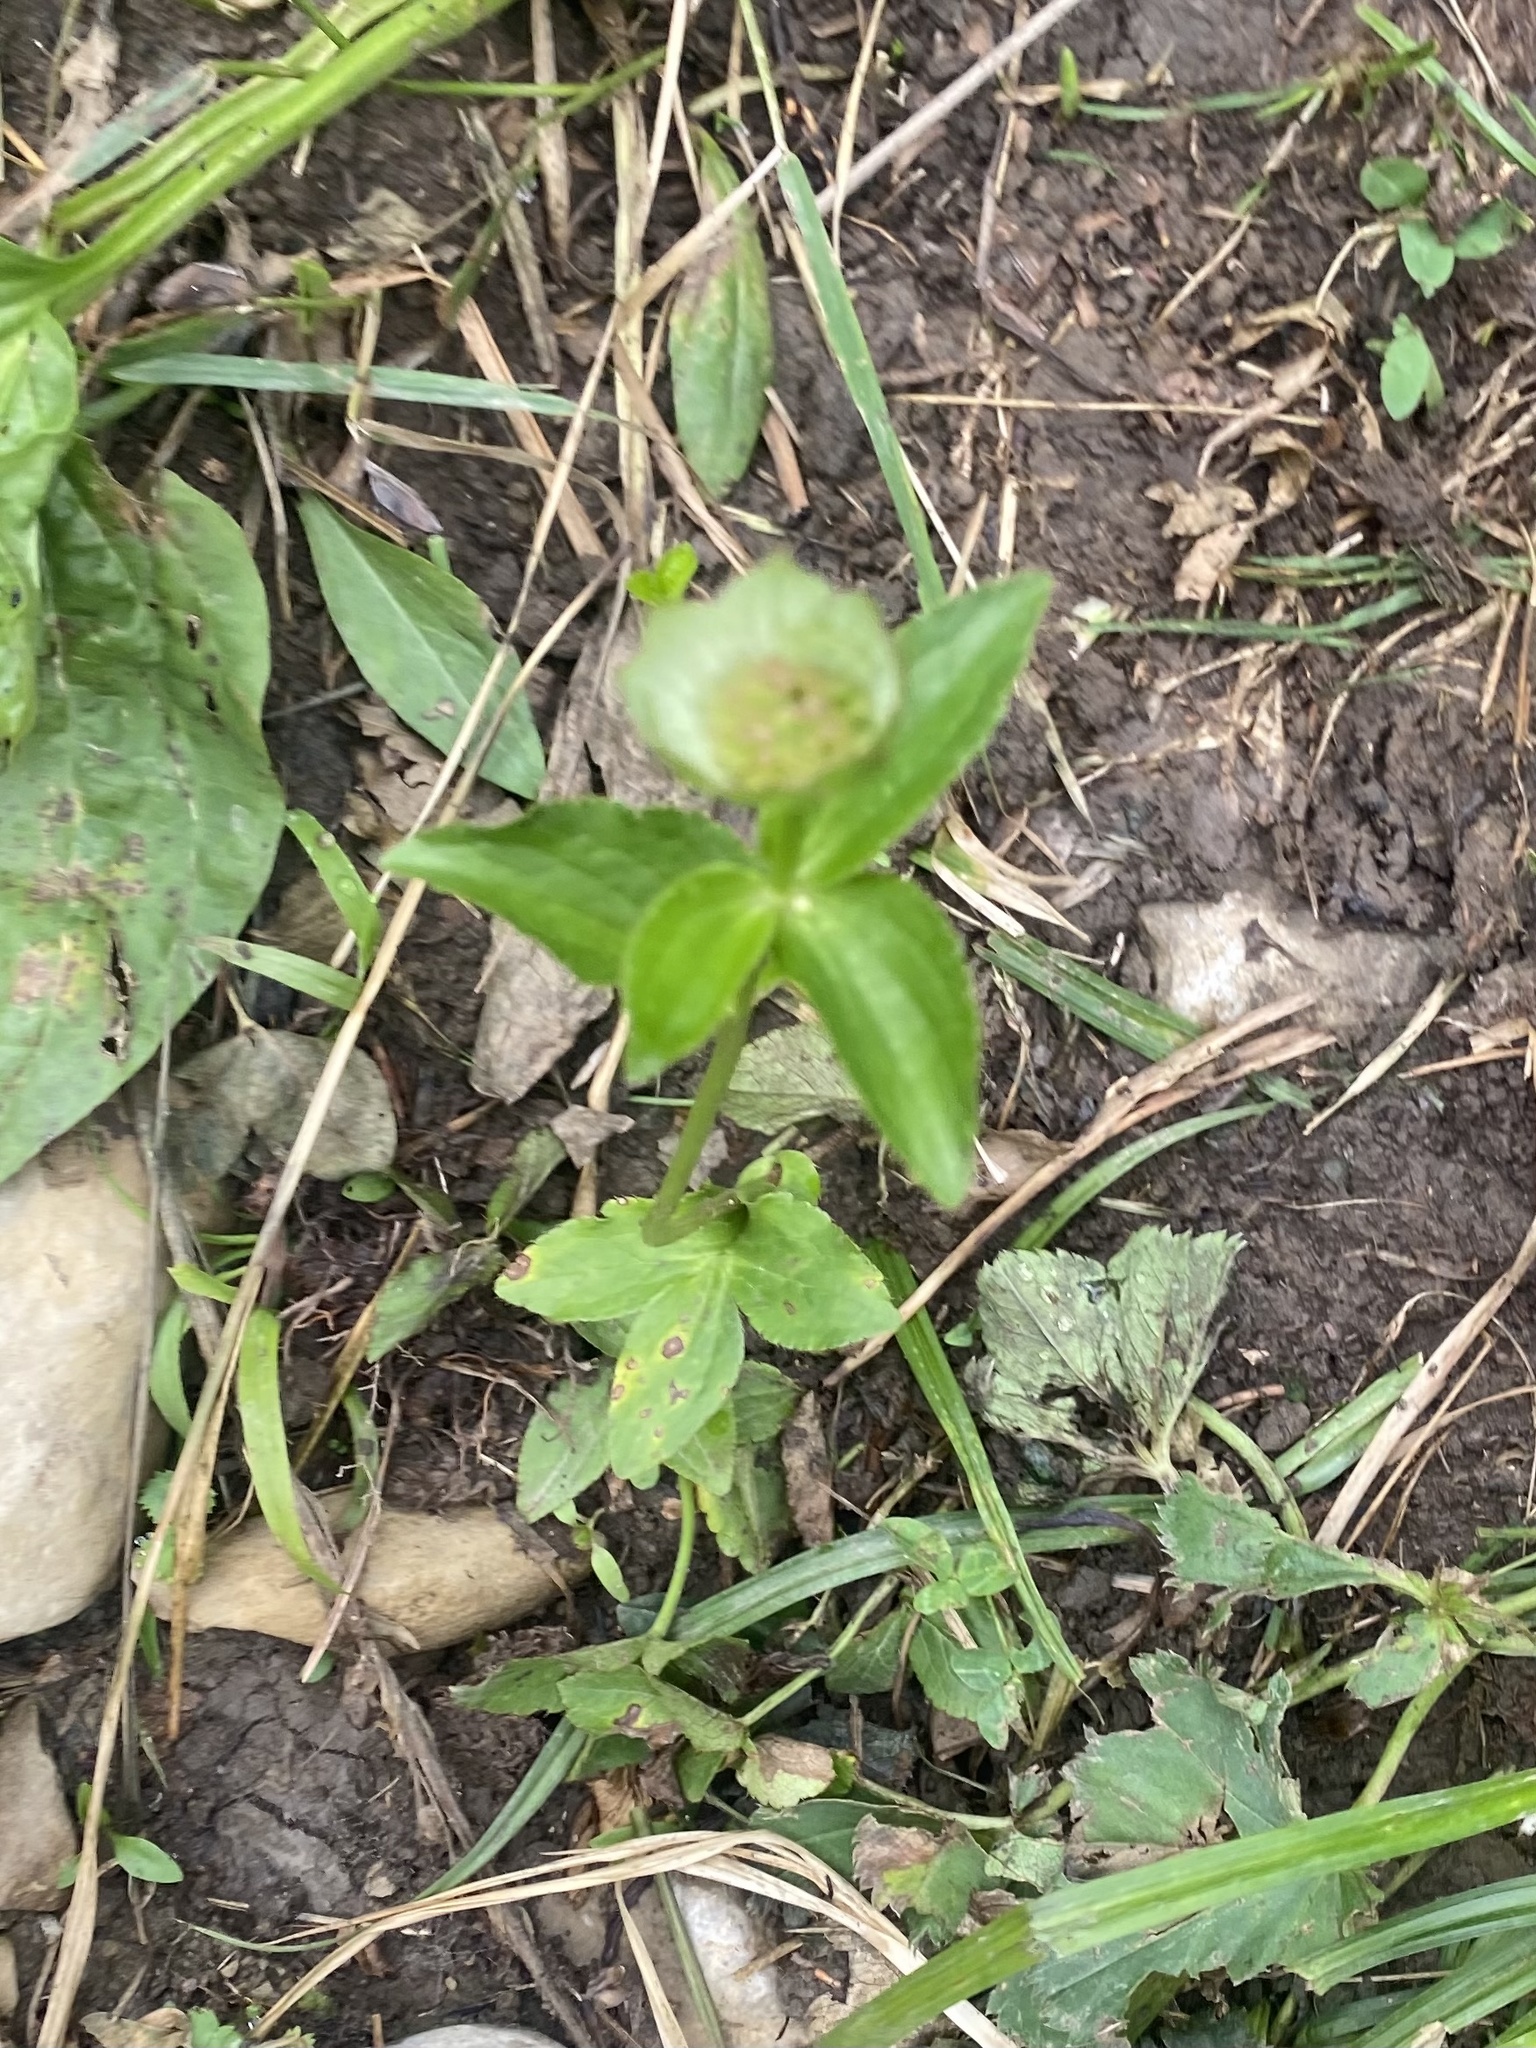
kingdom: Plantae
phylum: Tracheophyta
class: Magnoliopsida
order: Apiales
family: Apiaceae
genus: Astrantia
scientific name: Astrantia maxima
